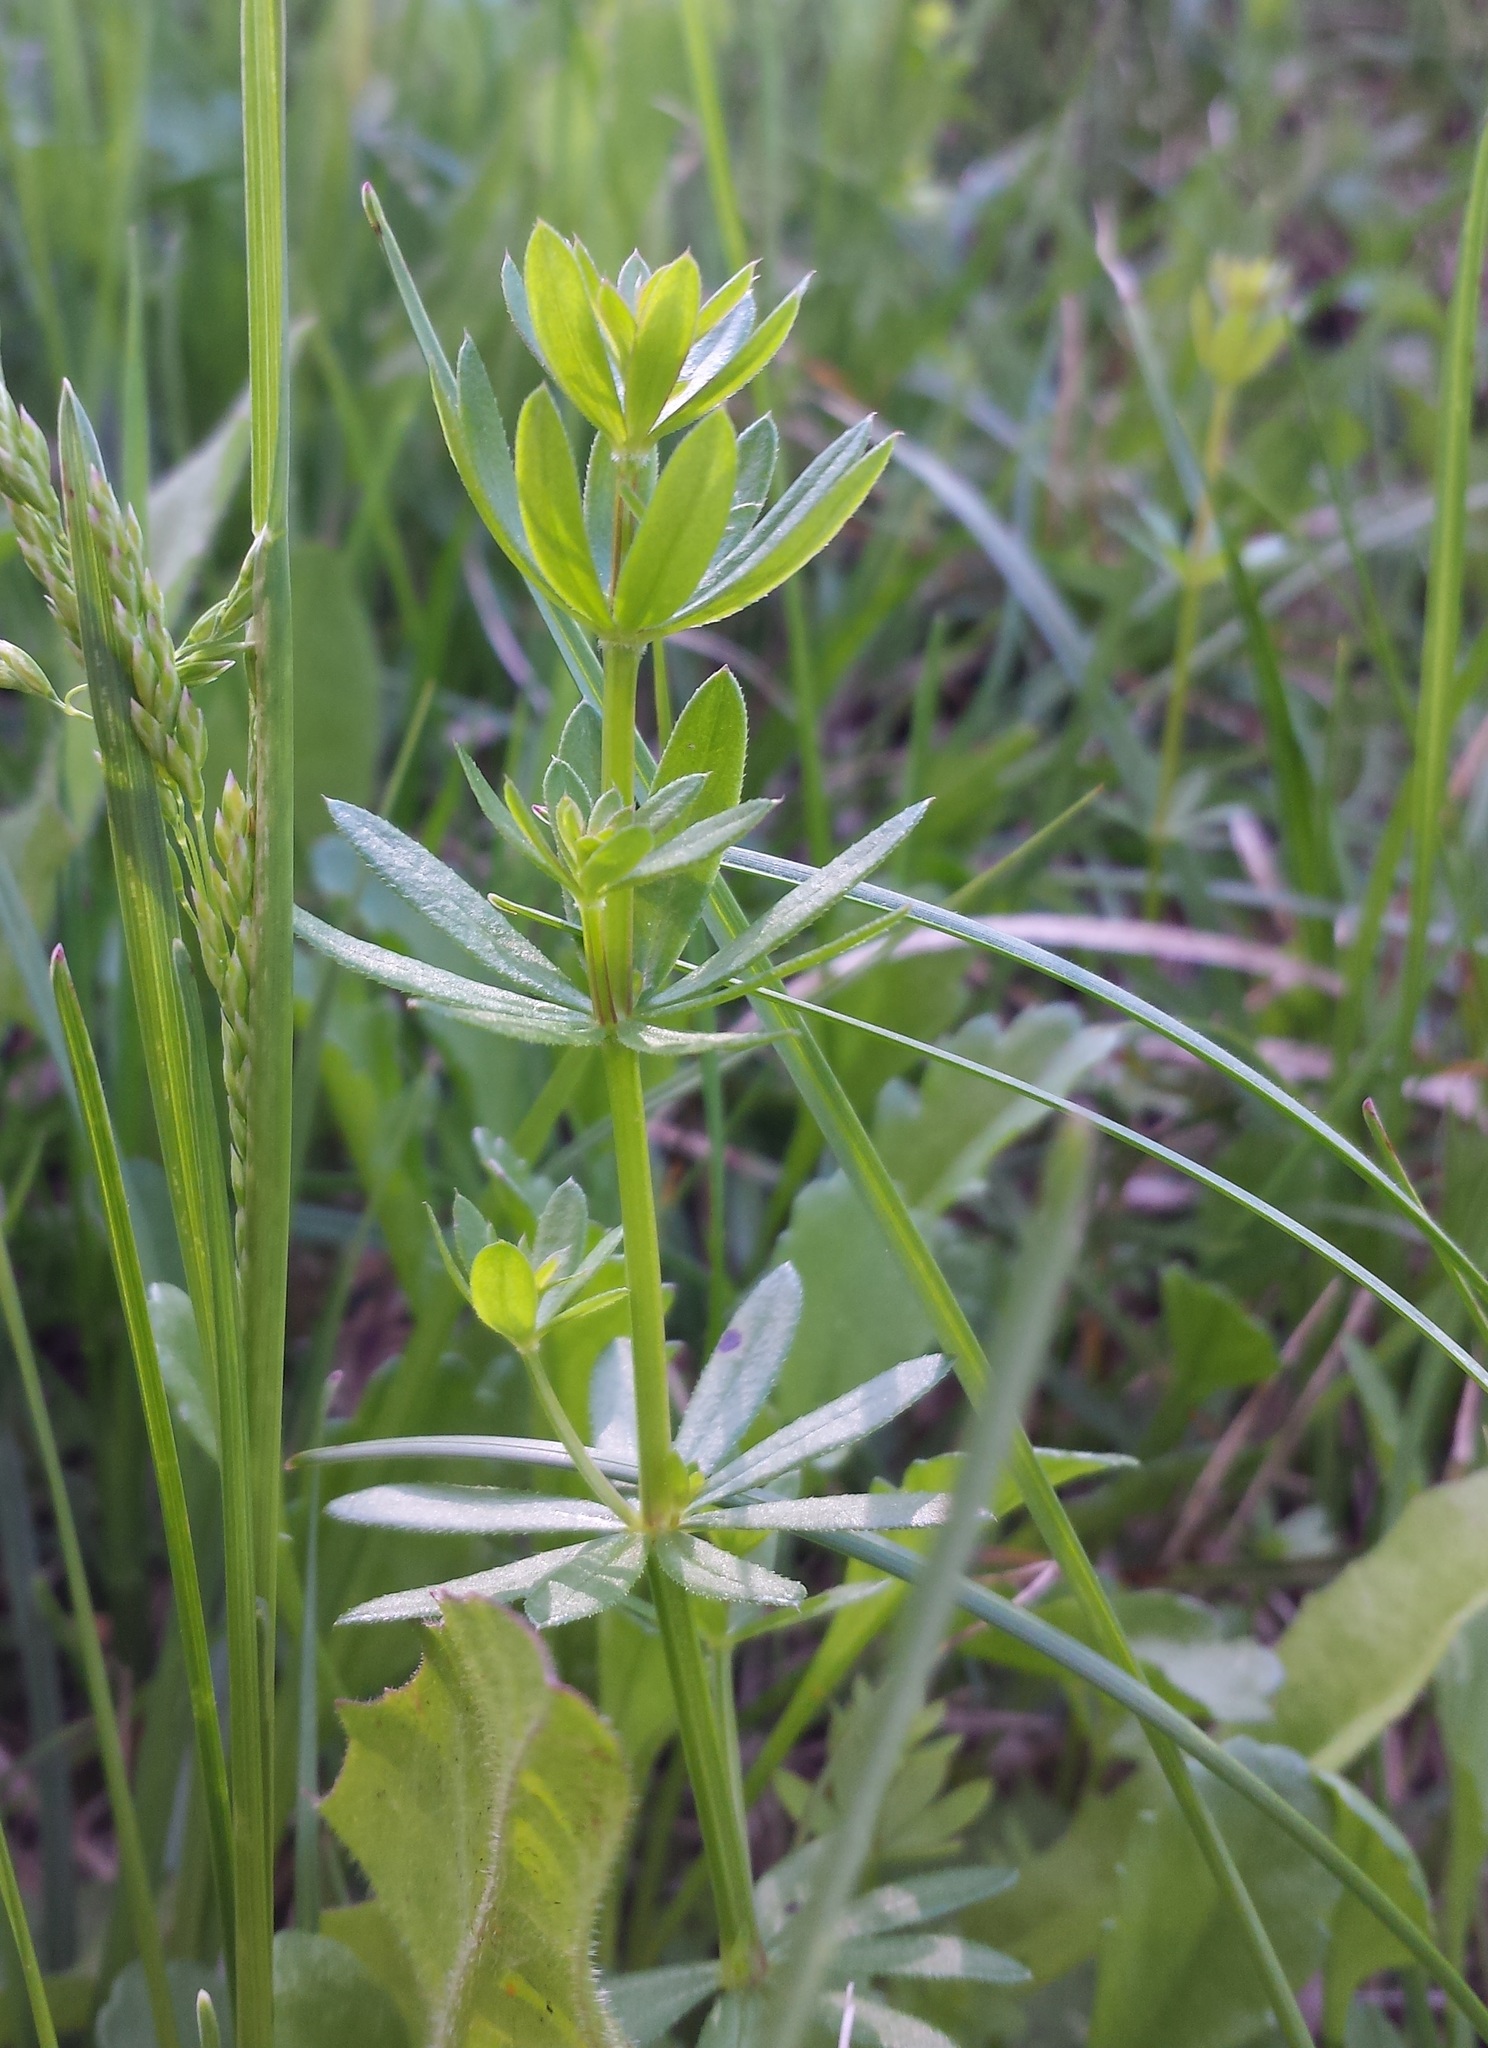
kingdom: Plantae
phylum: Tracheophyta
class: Magnoliopsida
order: Gentianales
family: Rubiaceae
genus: Galium
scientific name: Galium mollugo
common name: Hedge bedstraw
